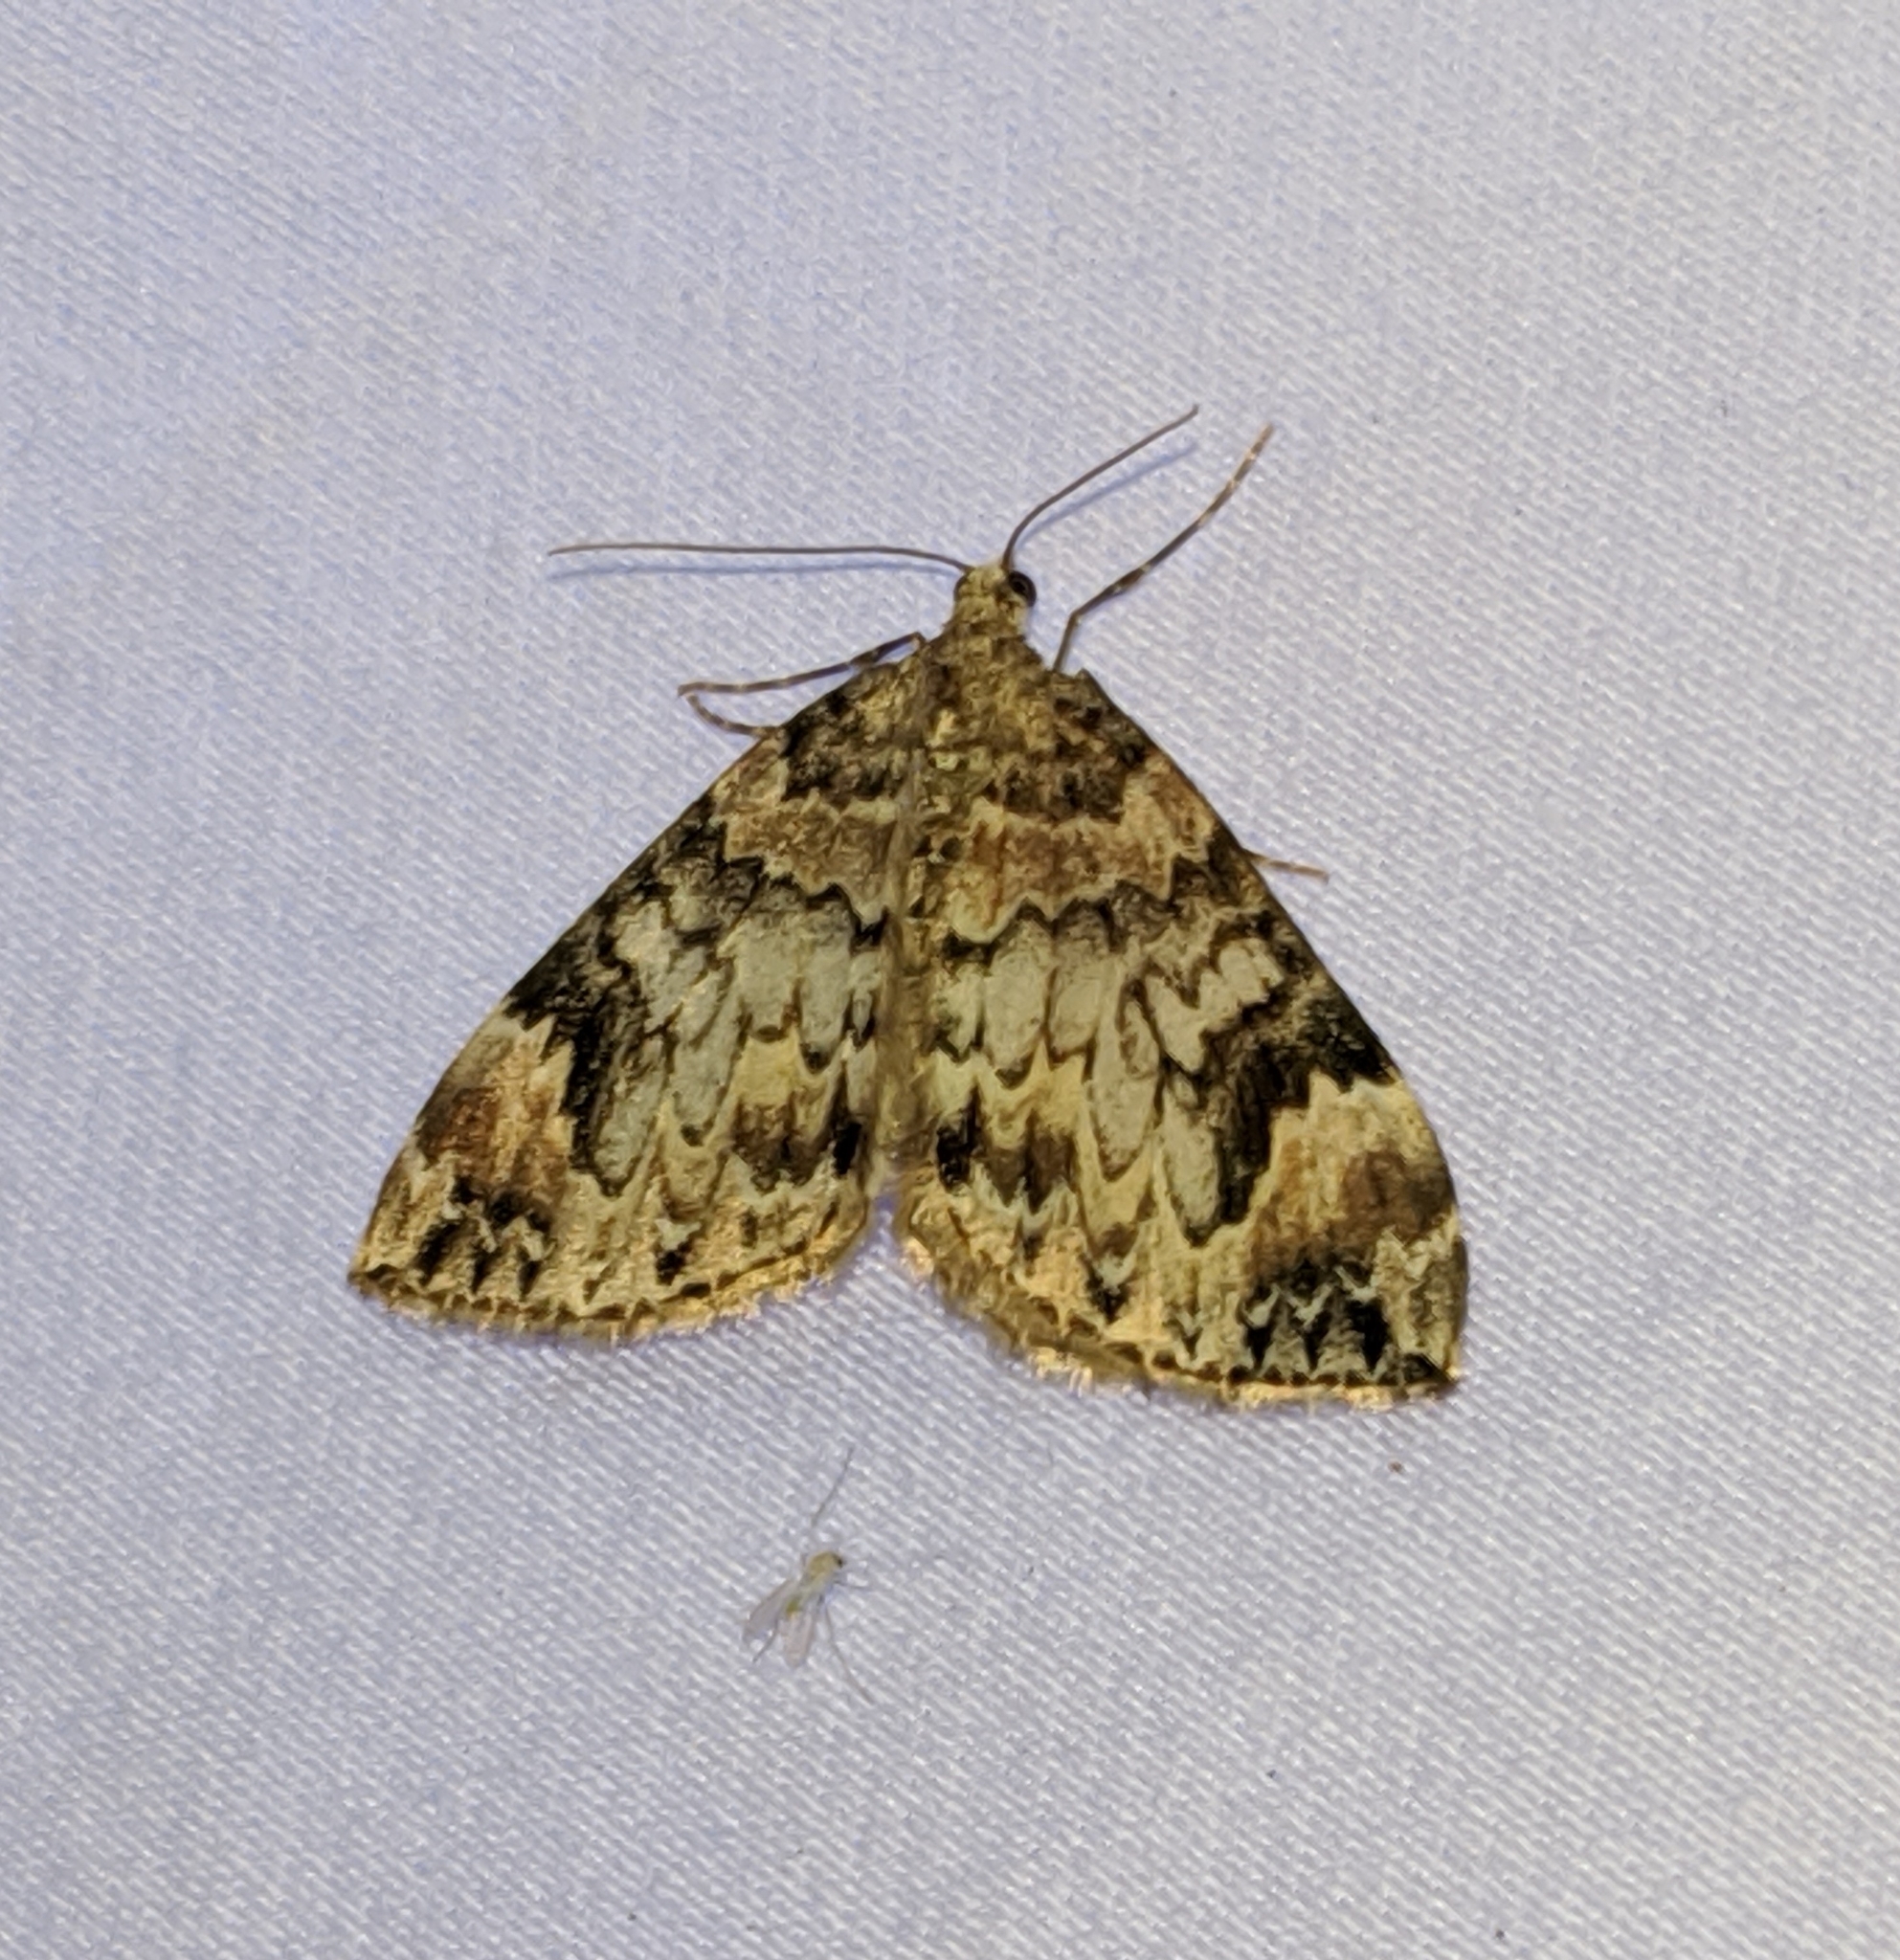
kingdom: Animalia
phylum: Arthropoda
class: Insecta
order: Lepidoptera
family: Geometridae
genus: Dysstroma
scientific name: Dysstroma citrata
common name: Dark marbled carpet
